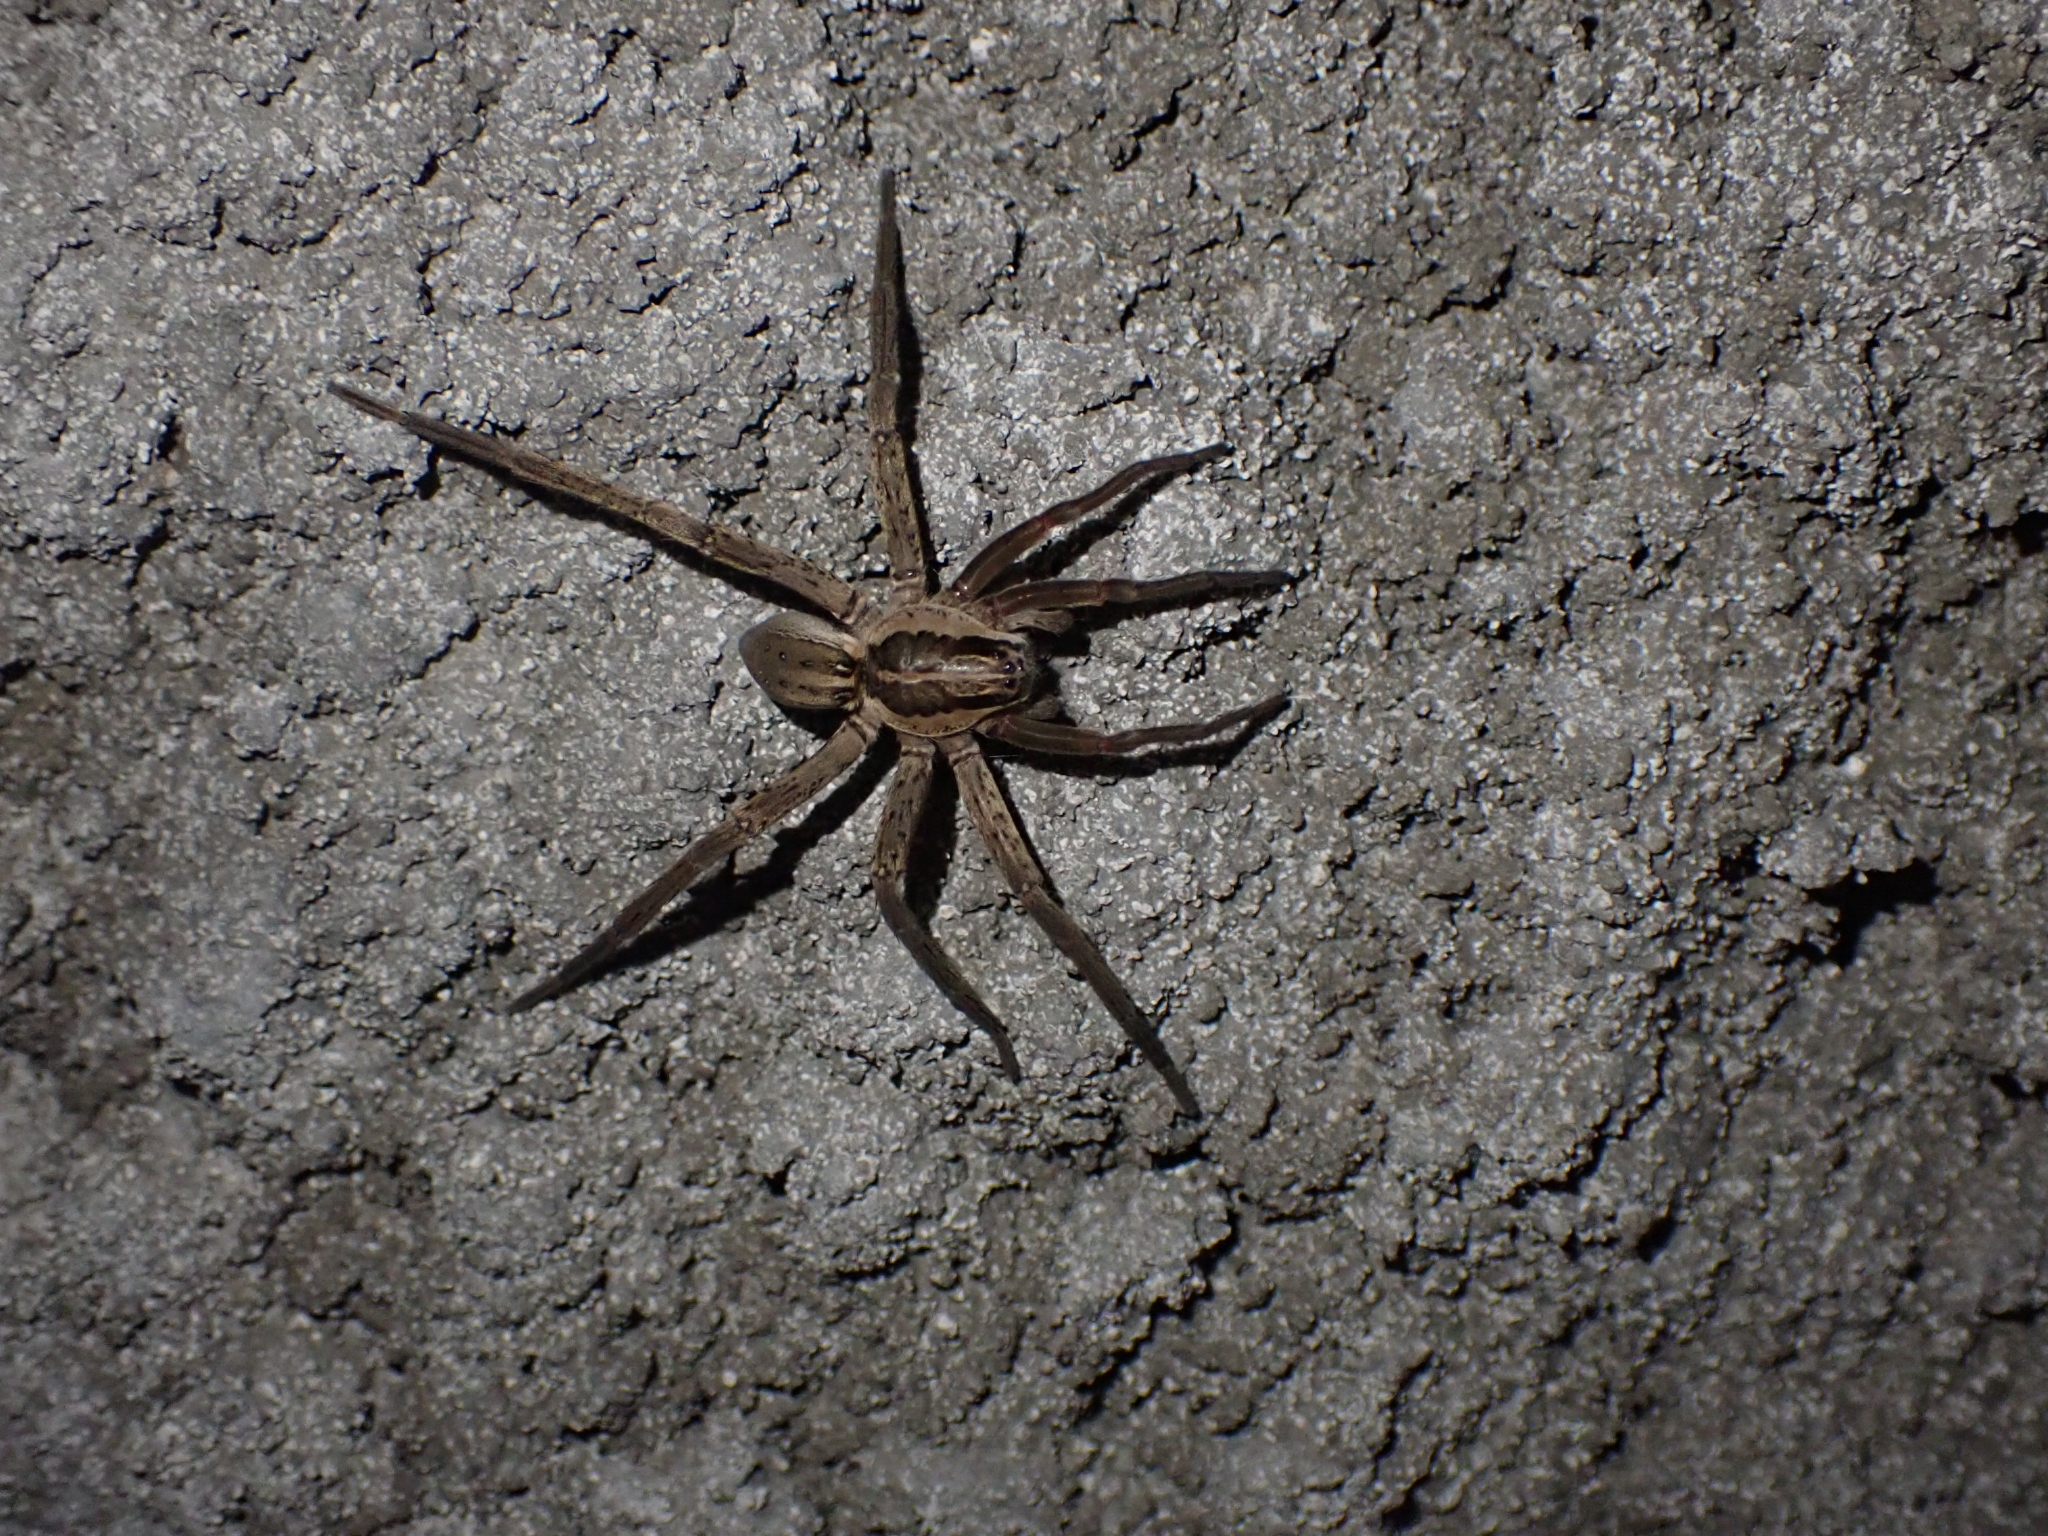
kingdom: Animalia
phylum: Arthropoda
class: Arachnida
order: Araneae
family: Pisauridae
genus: Dolomedes
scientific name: Dolomedes minor
